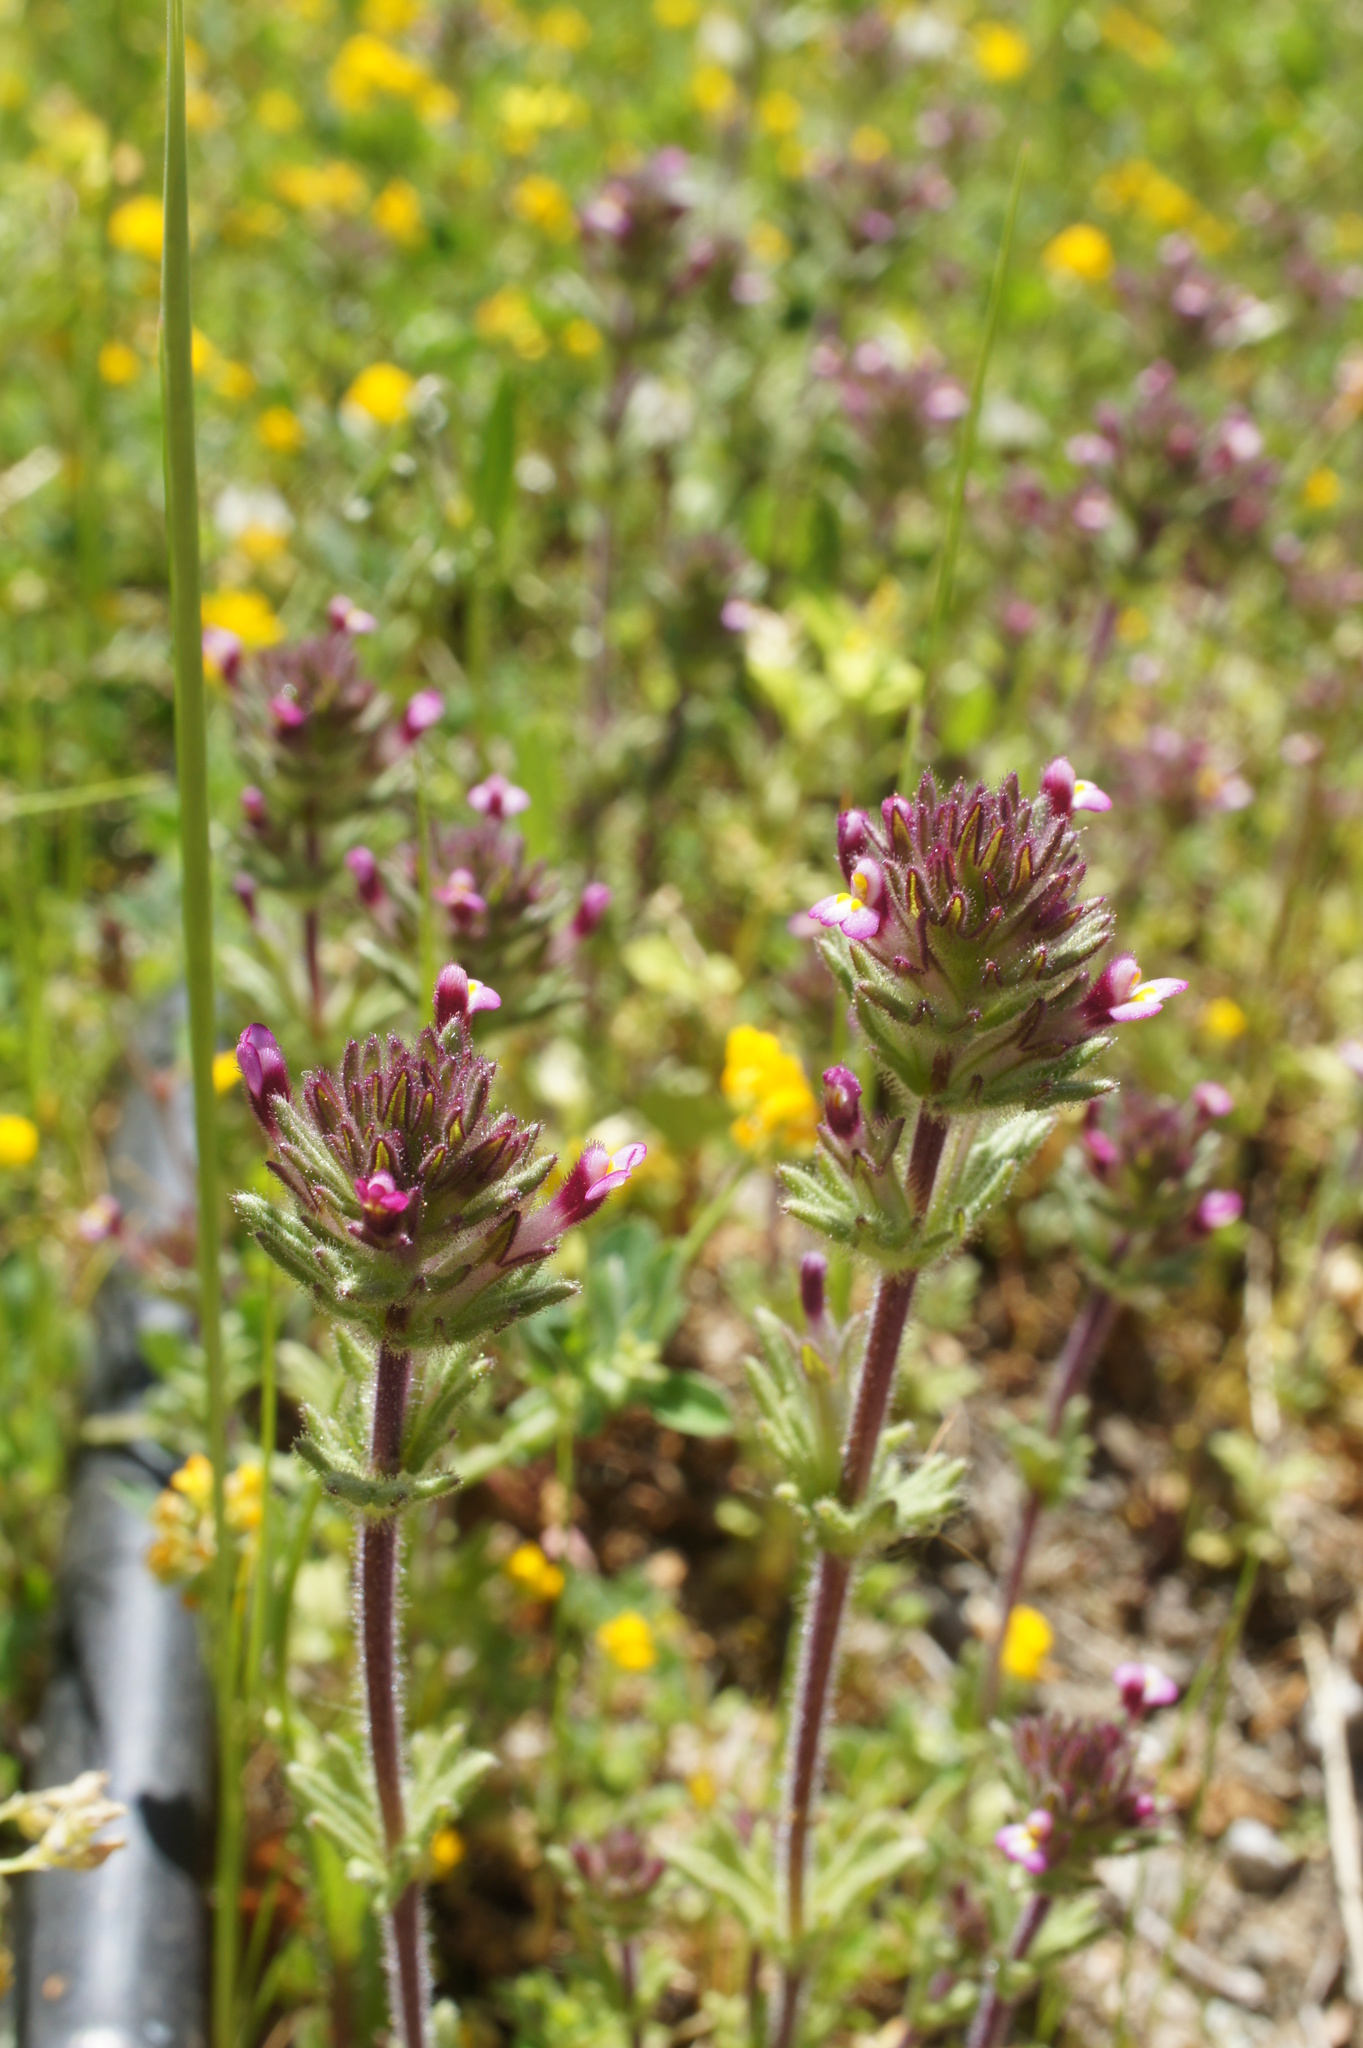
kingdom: Plantae
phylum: Tracheophyta
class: Magnoliopsida
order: Lamiales
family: Orobanchaceae
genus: Parentucellia
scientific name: Parentucellia latifolia
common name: Broadleaf glandweed
